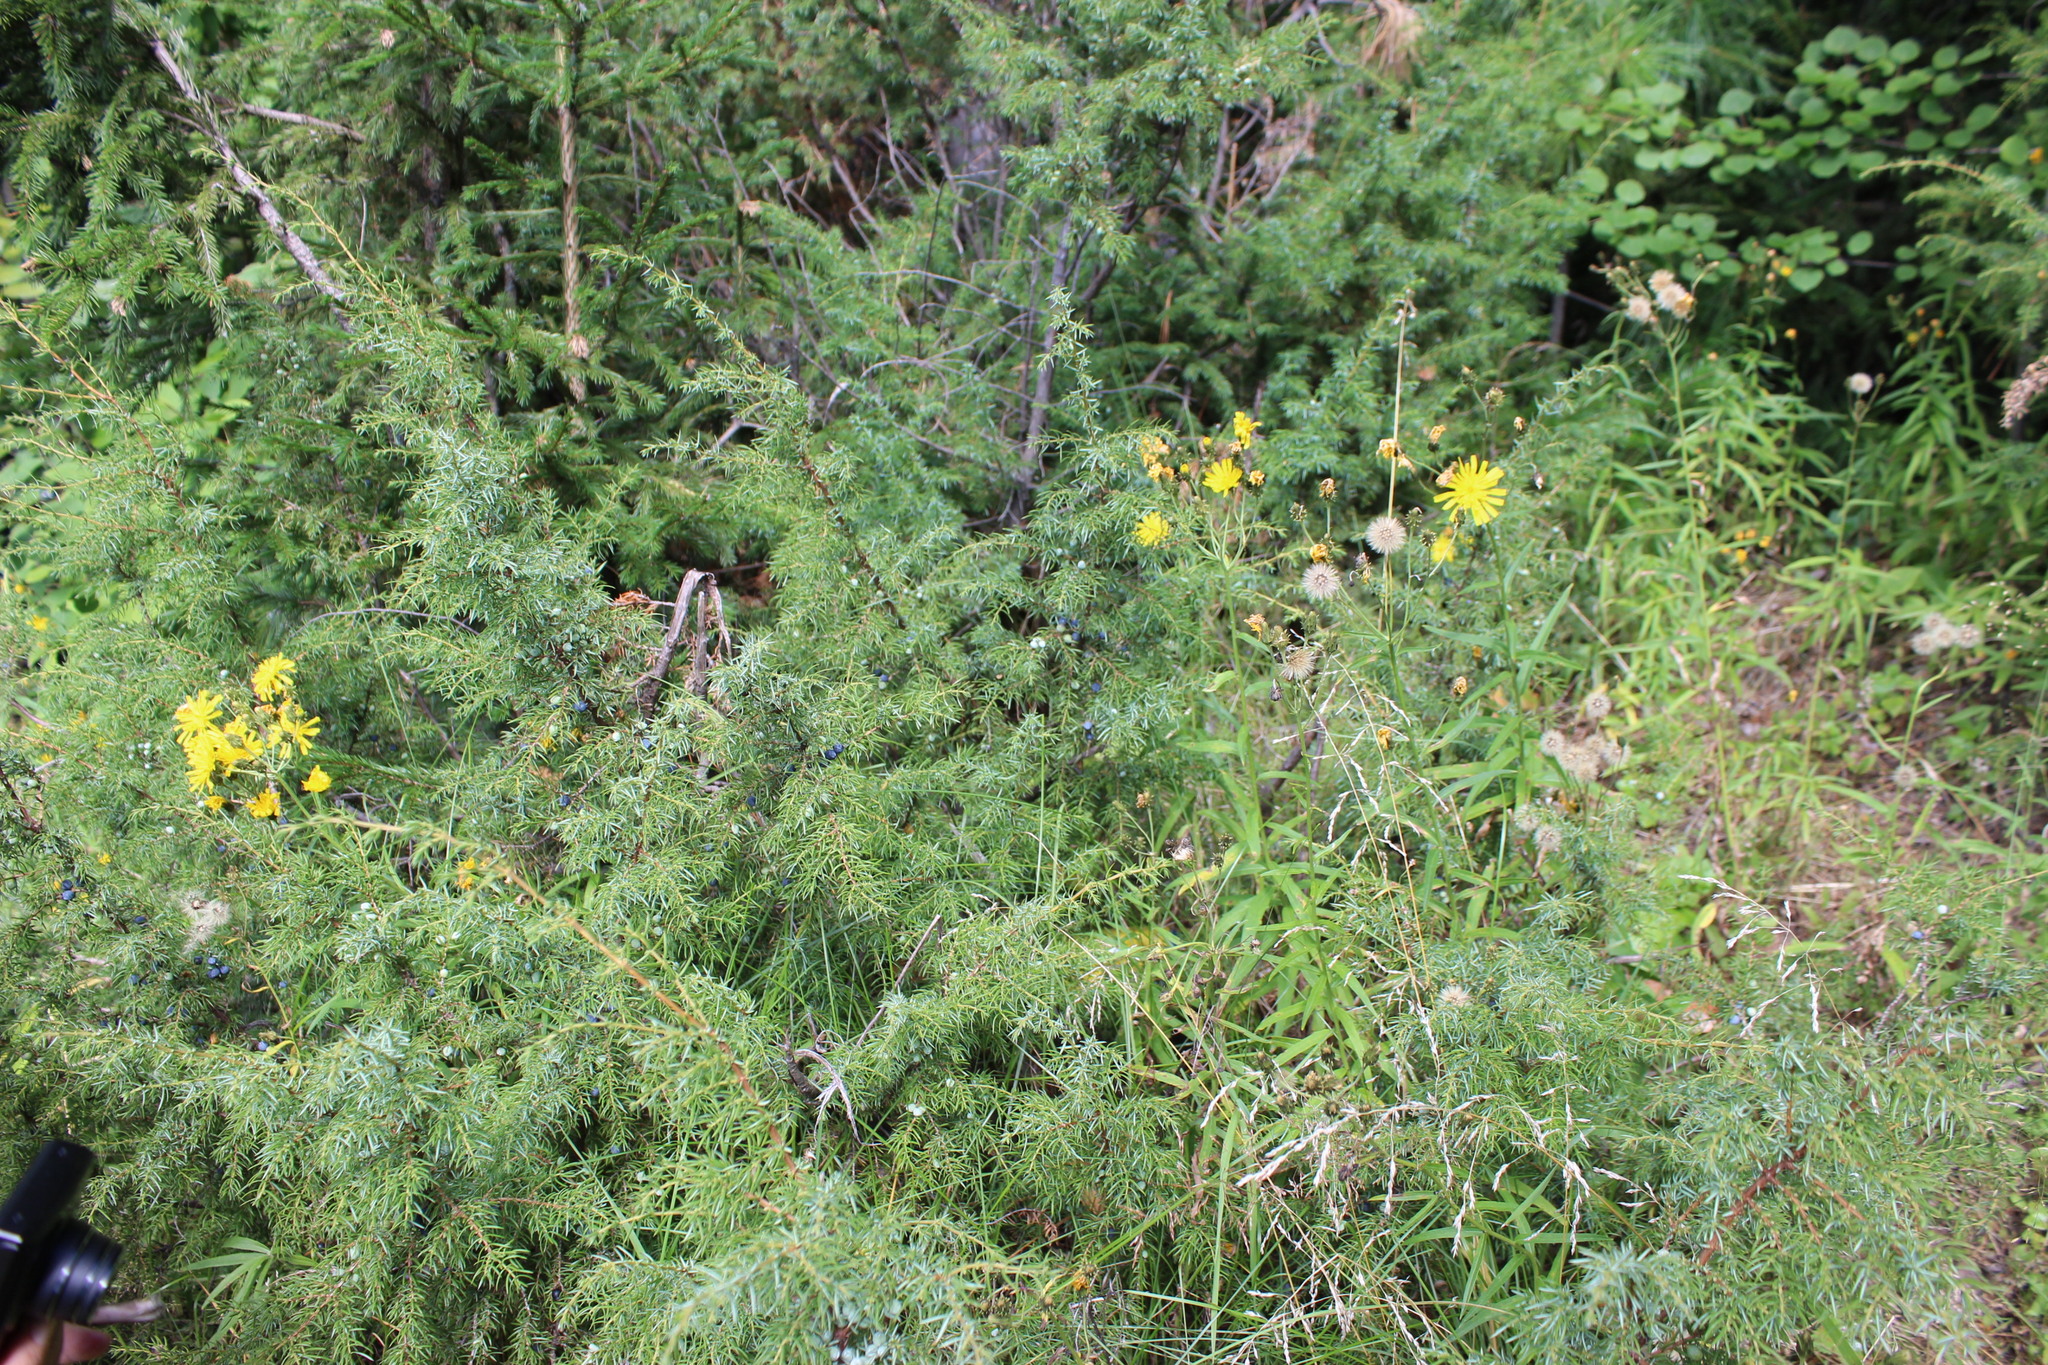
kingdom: Plantae
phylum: Tracheophyta
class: Pinopsida
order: Pinales
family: Cupressaceae
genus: Juniperus
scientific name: Juniperus communis
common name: Common juniper
